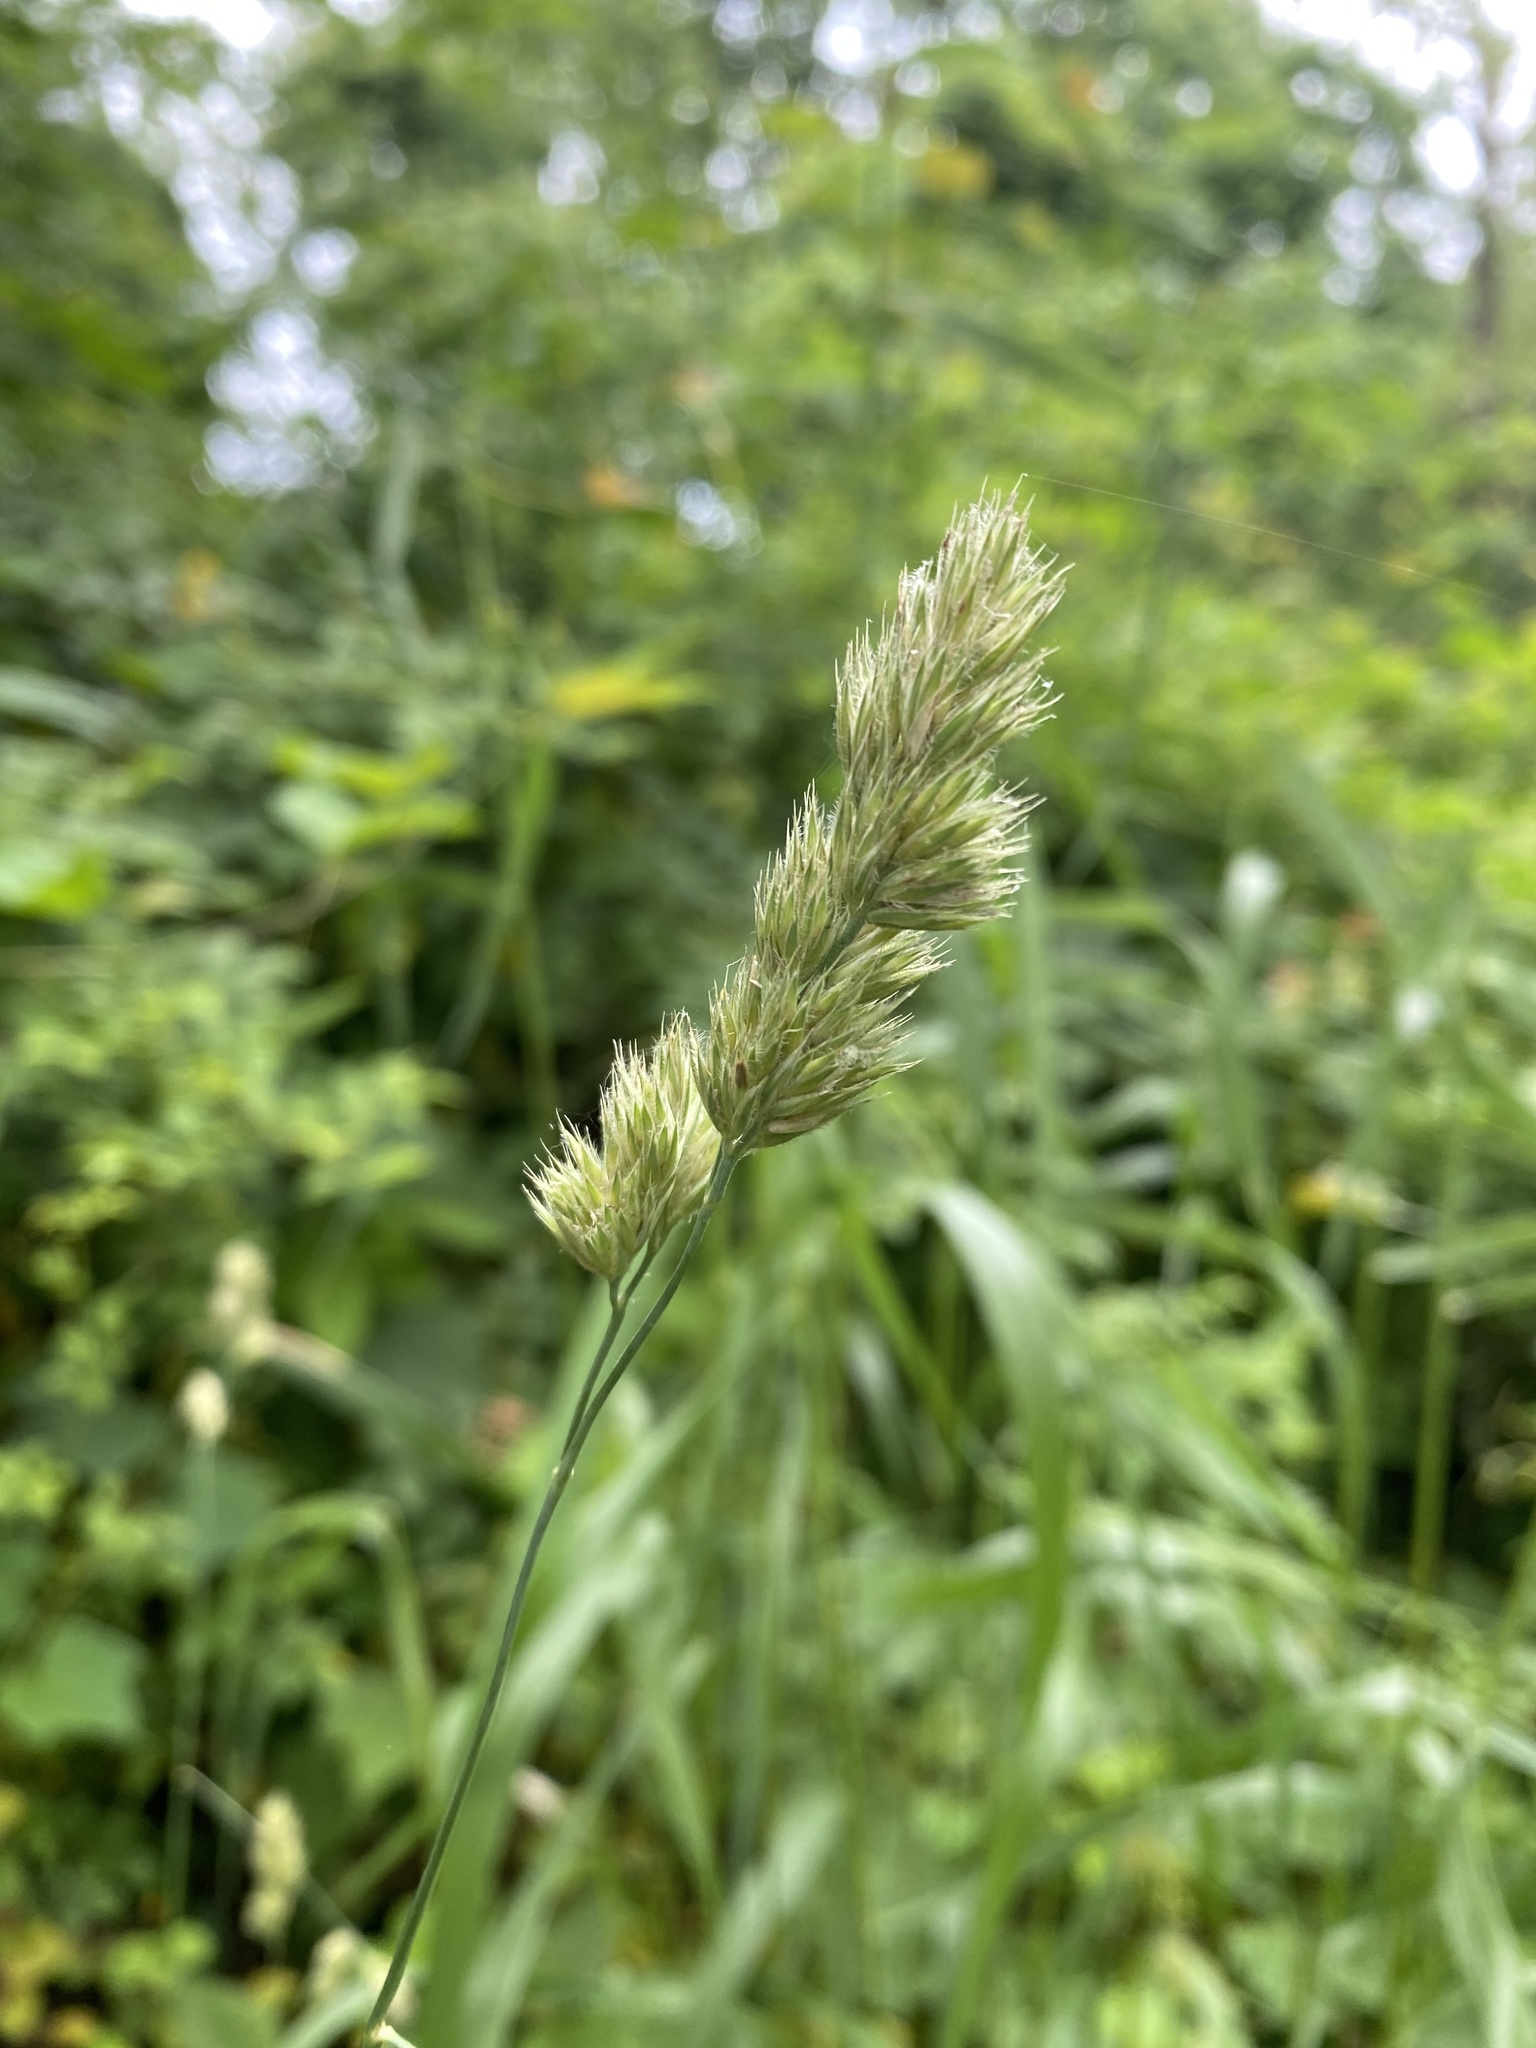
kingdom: Plantae
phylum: Tracheophyta
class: Liliopsida
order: Poales
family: Poaceae
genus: Dactylis
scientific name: Dactylis glomerata
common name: Orchardgrass
